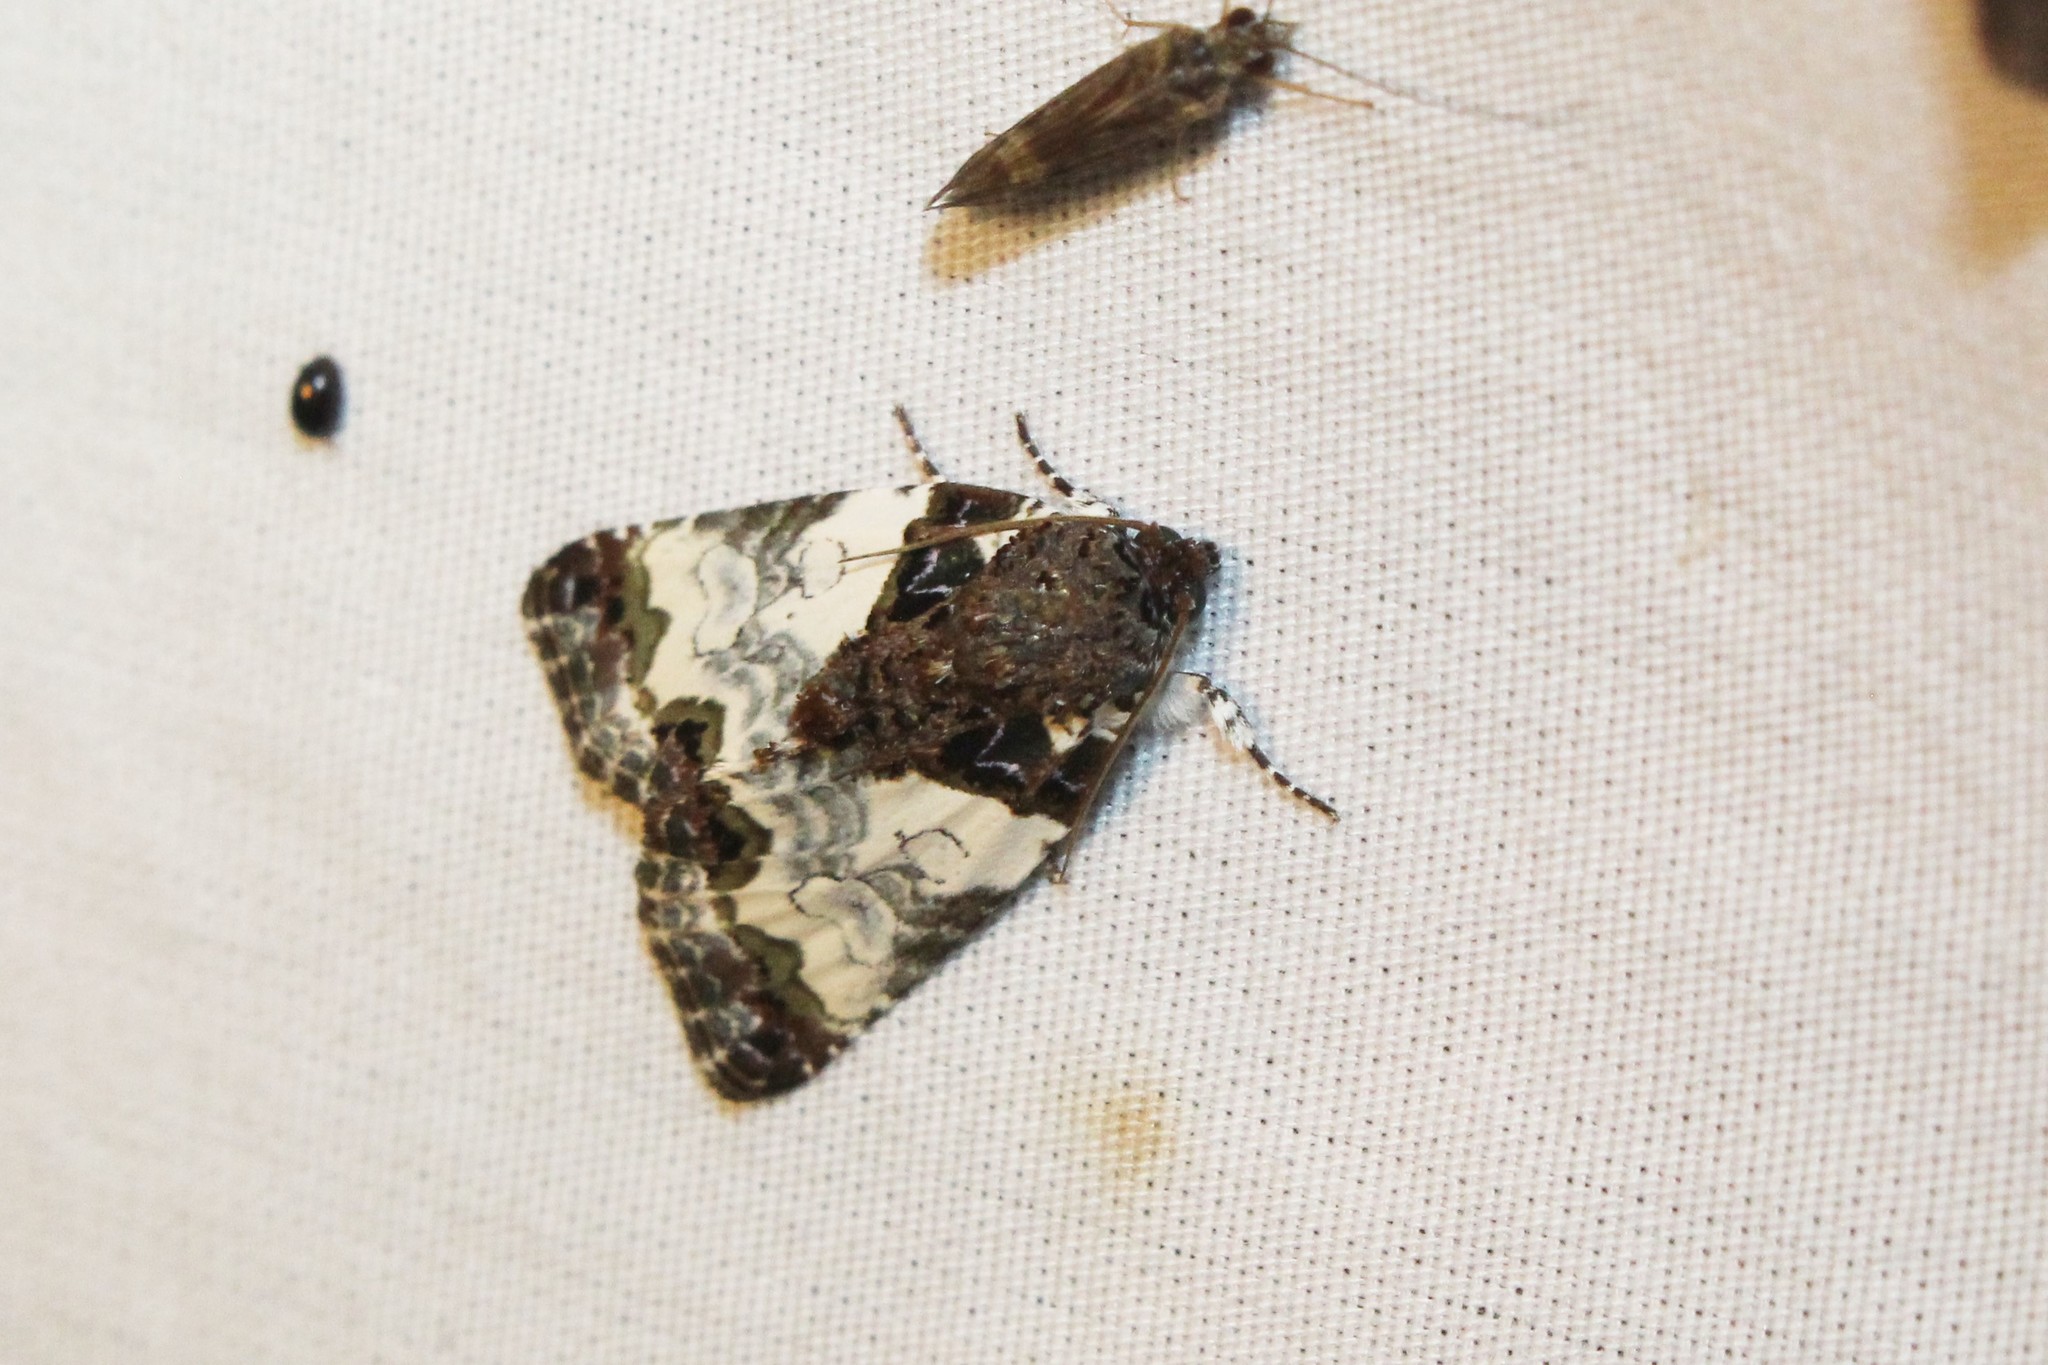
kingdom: Animalia
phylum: Arthropoda
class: Insecta
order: Lepidoptera
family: Noctuidae
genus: Cerma
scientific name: Cerma cerintha
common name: Tufted bird-dropping moth
